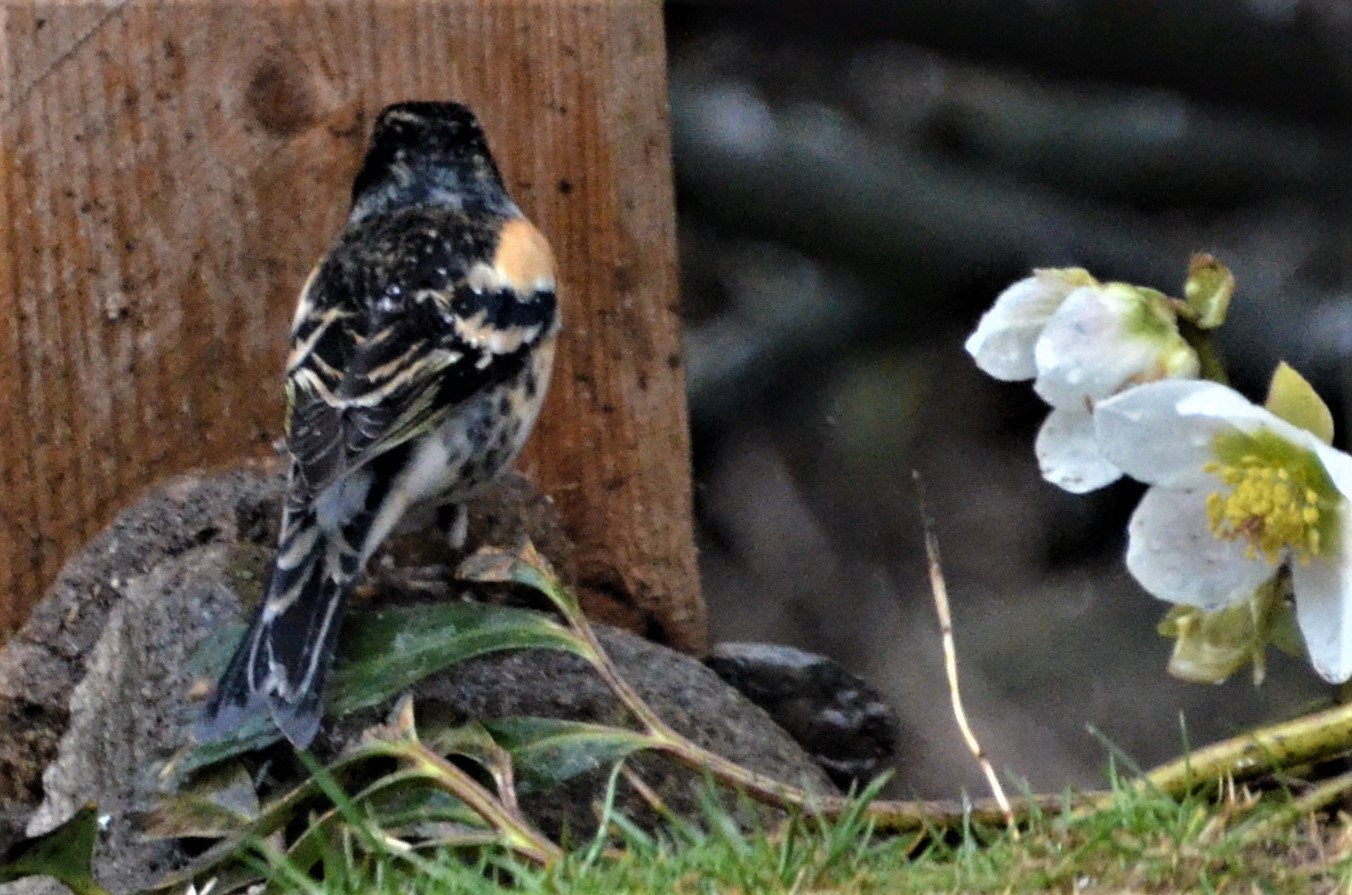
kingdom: Animalia
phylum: Chordata
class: Aves
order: Passeriformes
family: Fringillidae
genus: Fringilla
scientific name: Fringilla montifringilla
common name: Brambling
